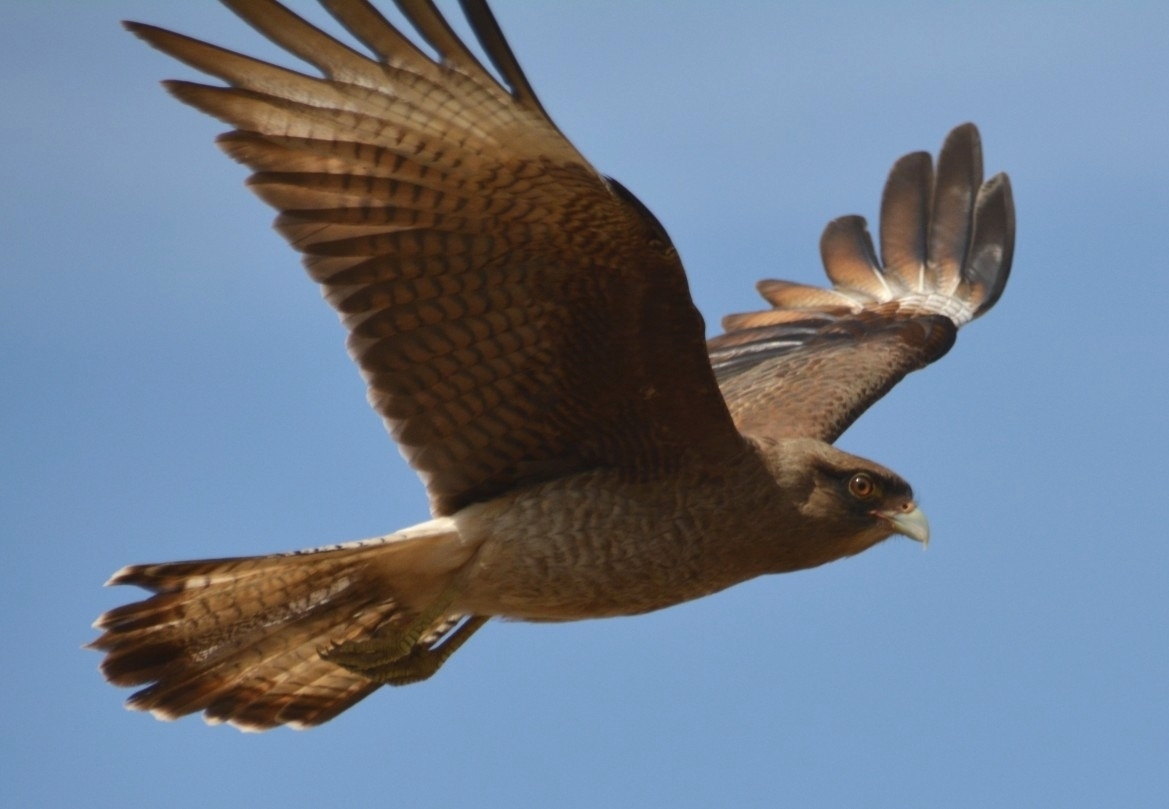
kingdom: Animalia
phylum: Chordata
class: Aves
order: Falconiformes
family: Falconidae
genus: Daptrius
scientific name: Daptrius
